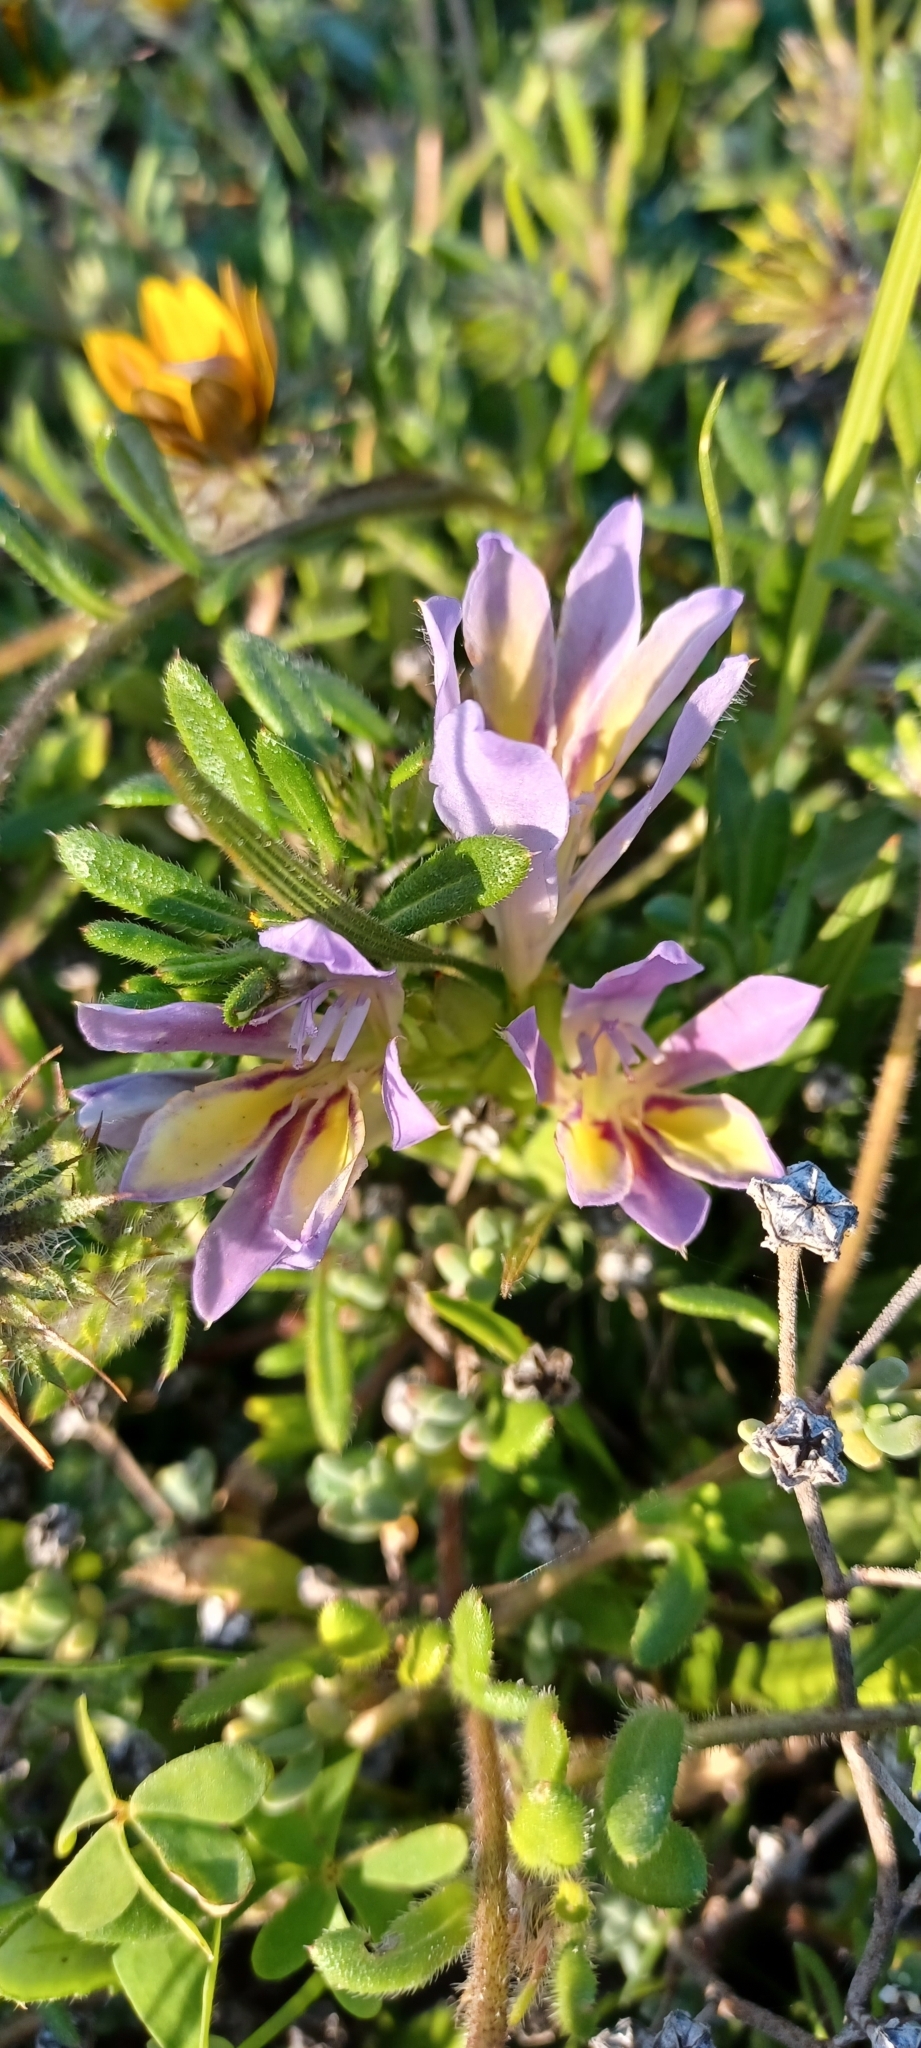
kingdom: Plantae
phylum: Tracheophyta
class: Liliopsida
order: Asparagales
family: Iridaceae
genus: Babiana
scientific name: Babiana patula
